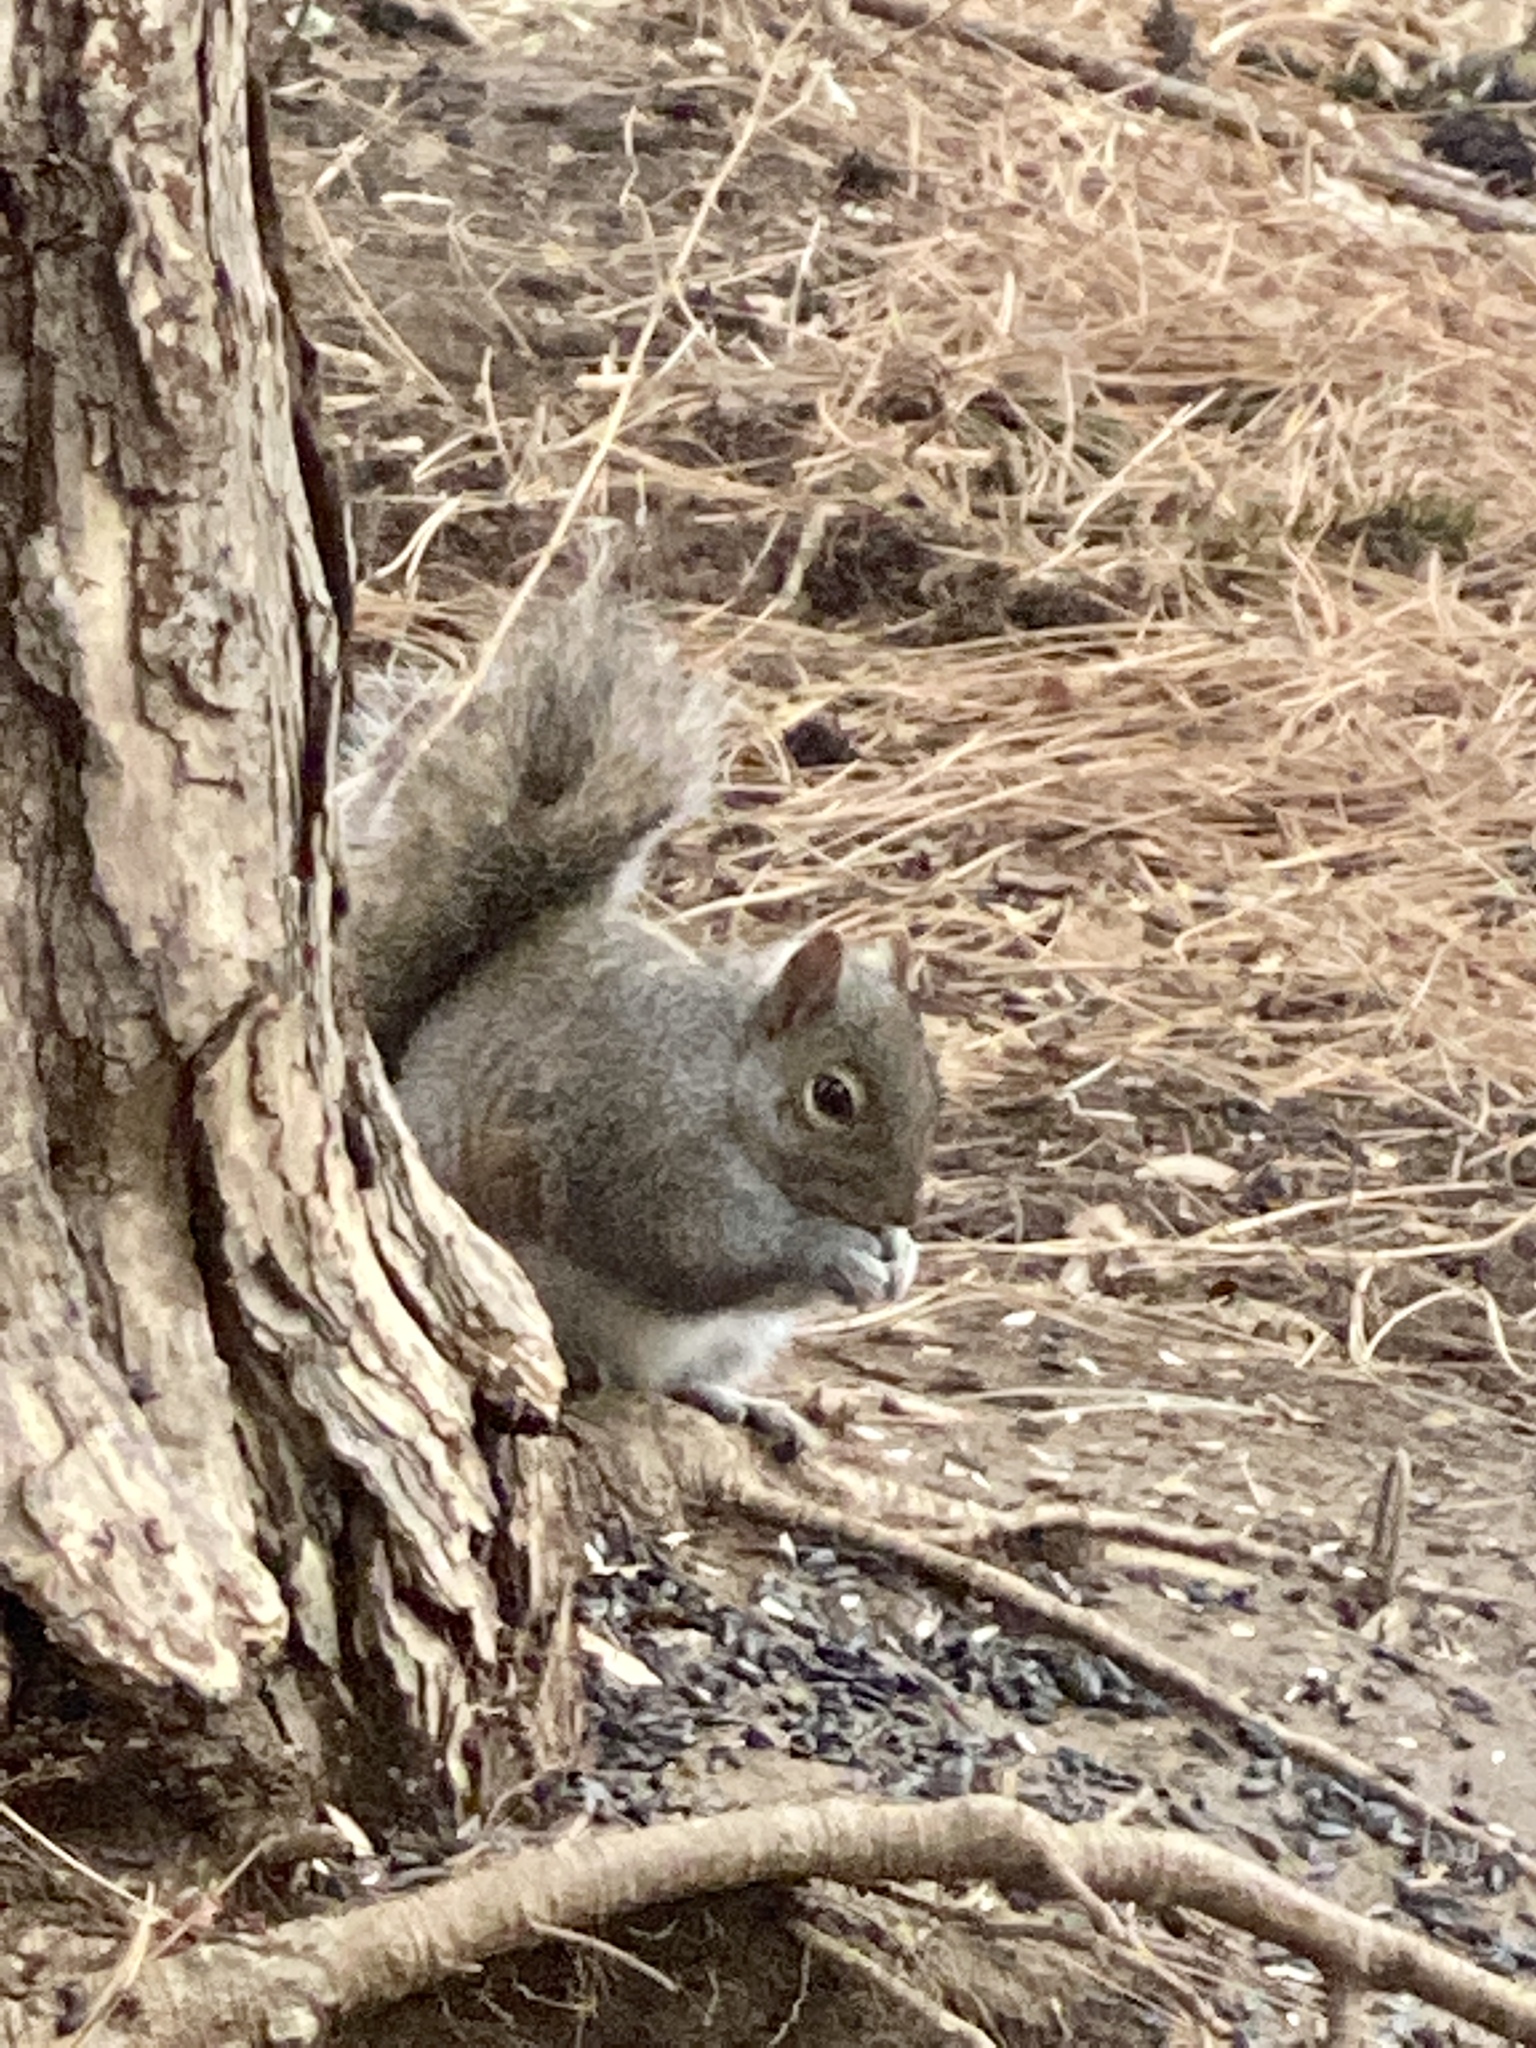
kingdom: Animalia
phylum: Chordata
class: Mammalia
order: Rodentia
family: Sciuridae
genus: Sciurus
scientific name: Sciurus carolinensis
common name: Eastern gray squirrel
